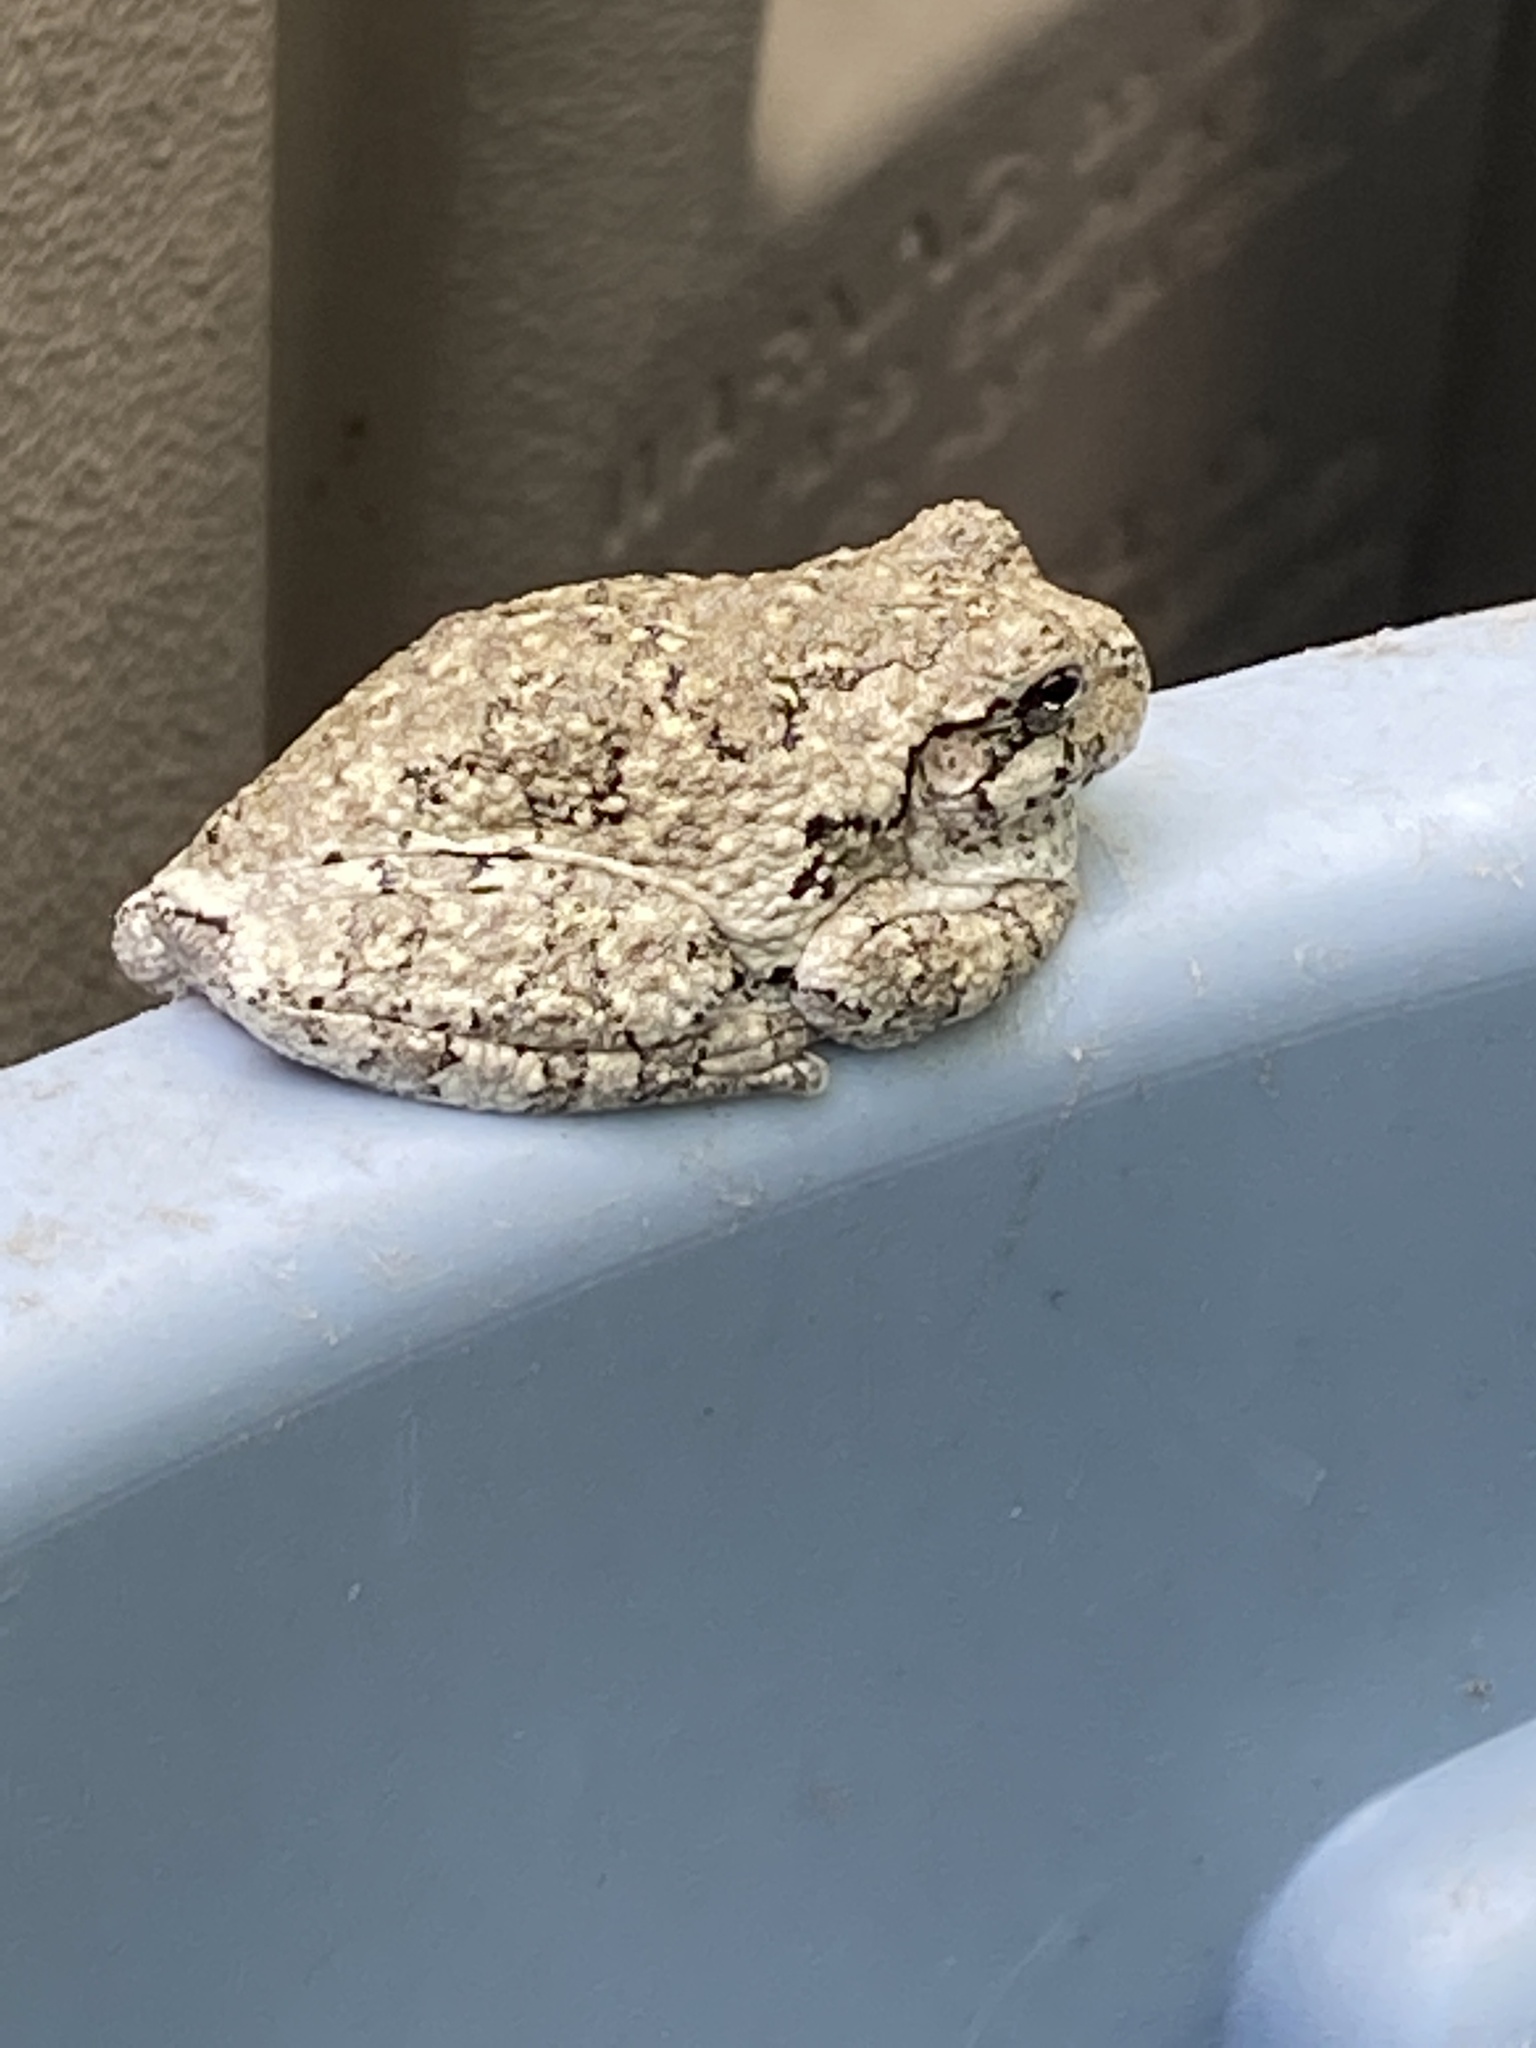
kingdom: Animalia
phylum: Chordata
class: Amphibia
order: Anura
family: Hylidae
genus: Dryophytes
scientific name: Dryophytes versicolor
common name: Gray treefrog
